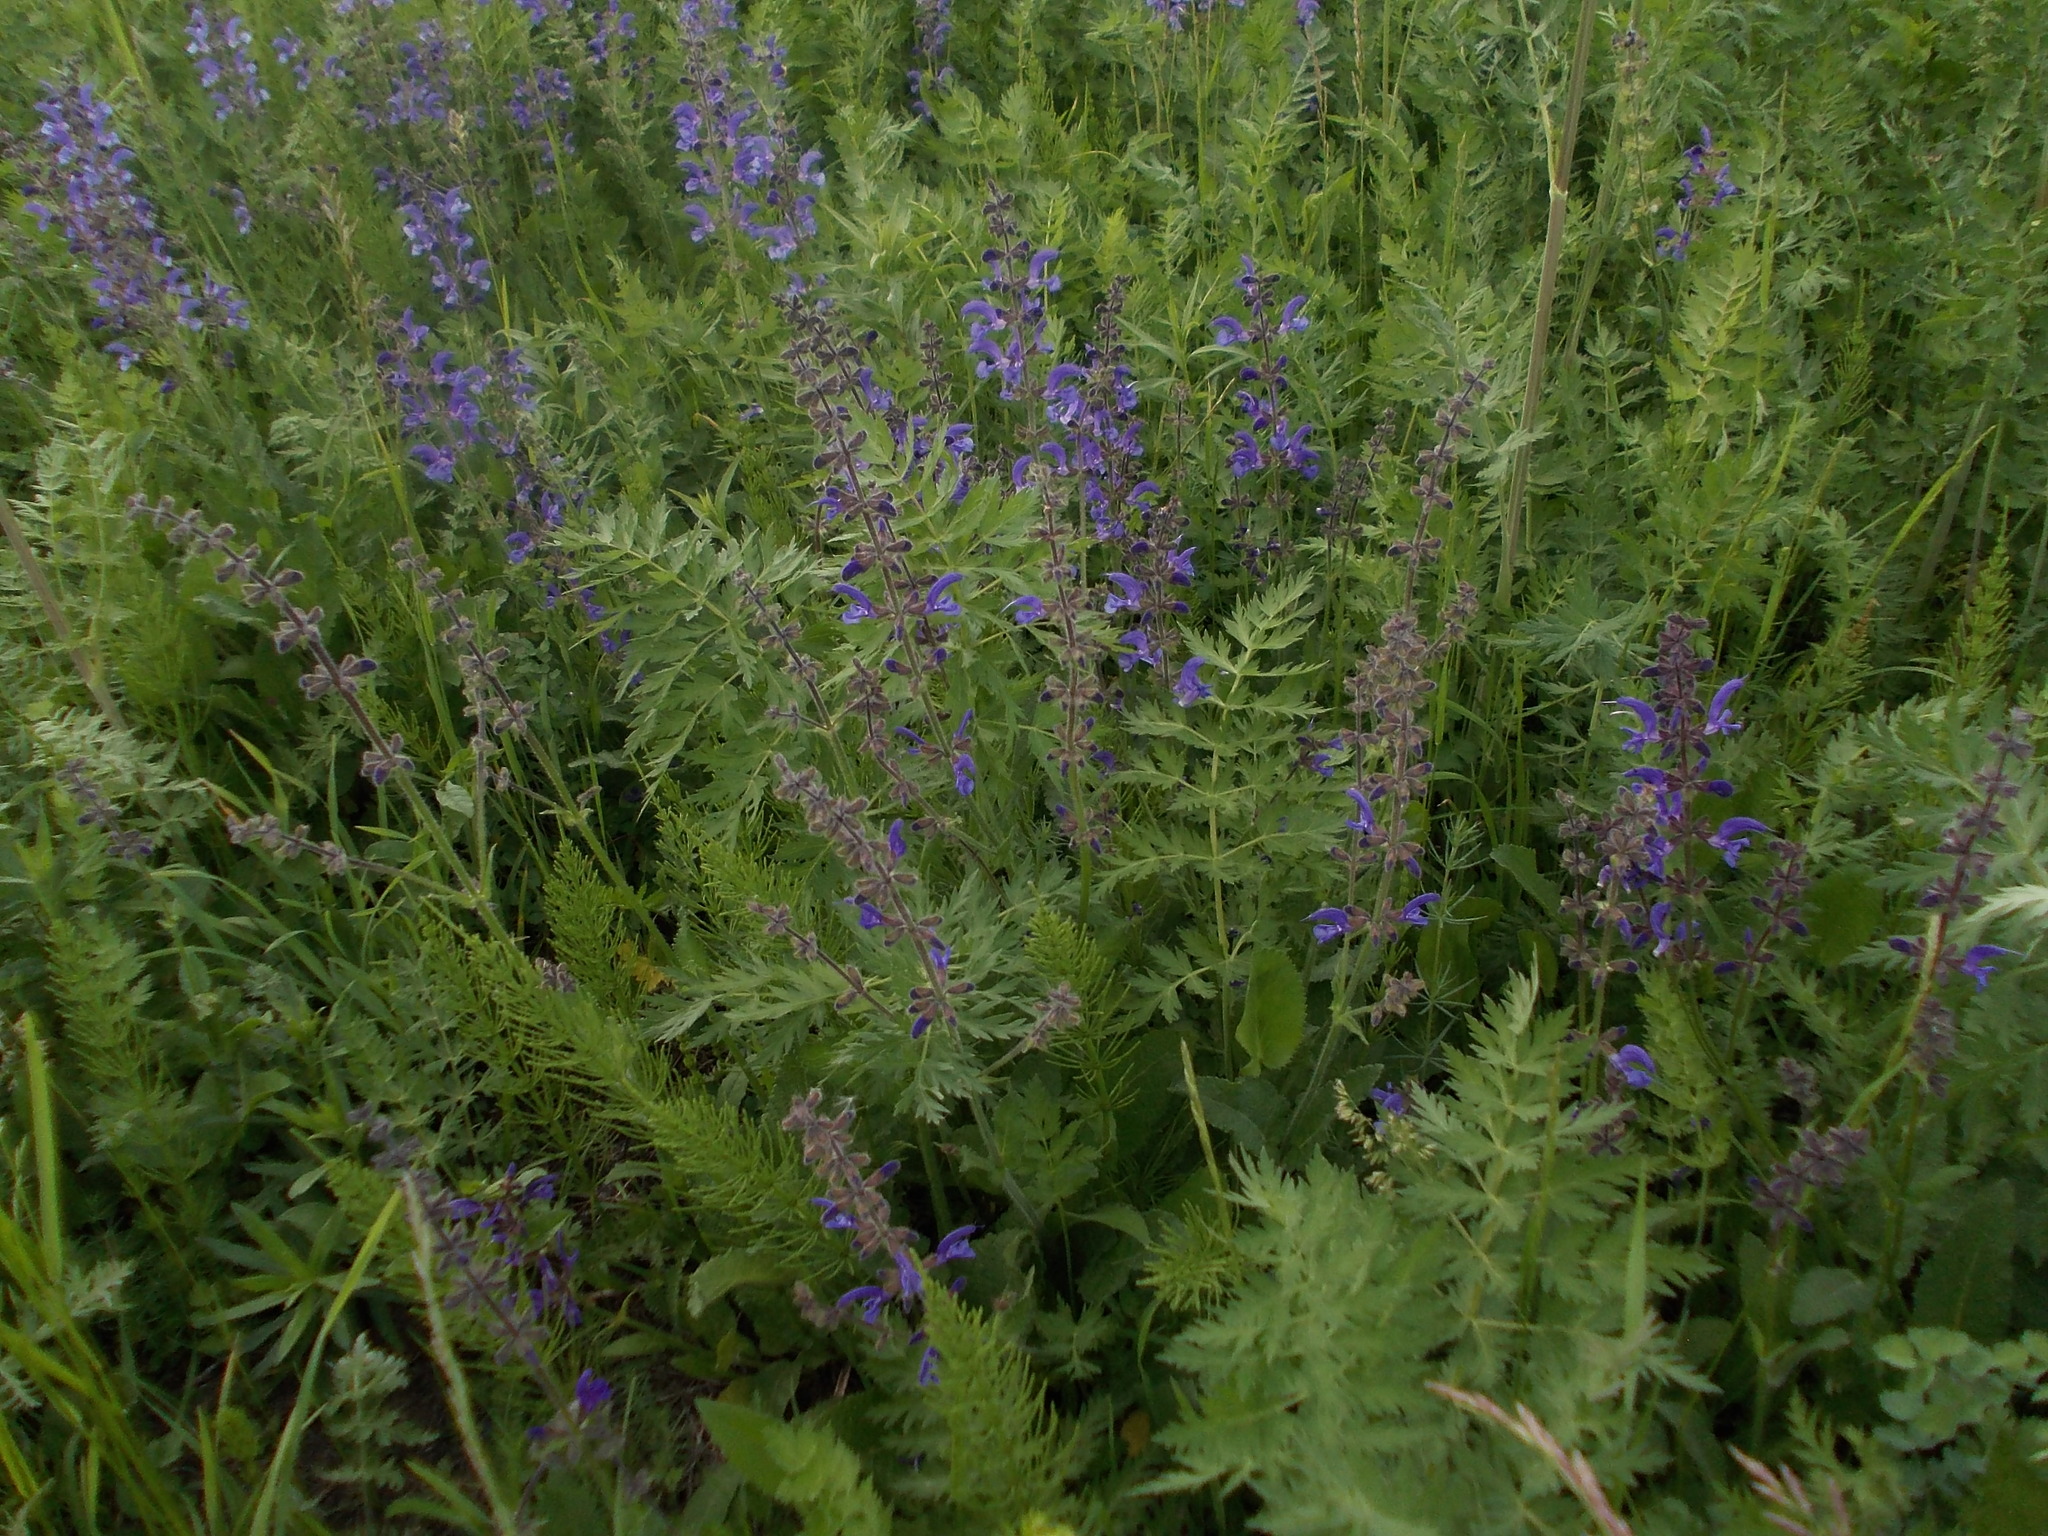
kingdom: Plantae
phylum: Tracheophyta
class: Magnoliopsida
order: Apiales
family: Apiaceae
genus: Seseli
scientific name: Seseli libanotis
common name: Mooncarrot
